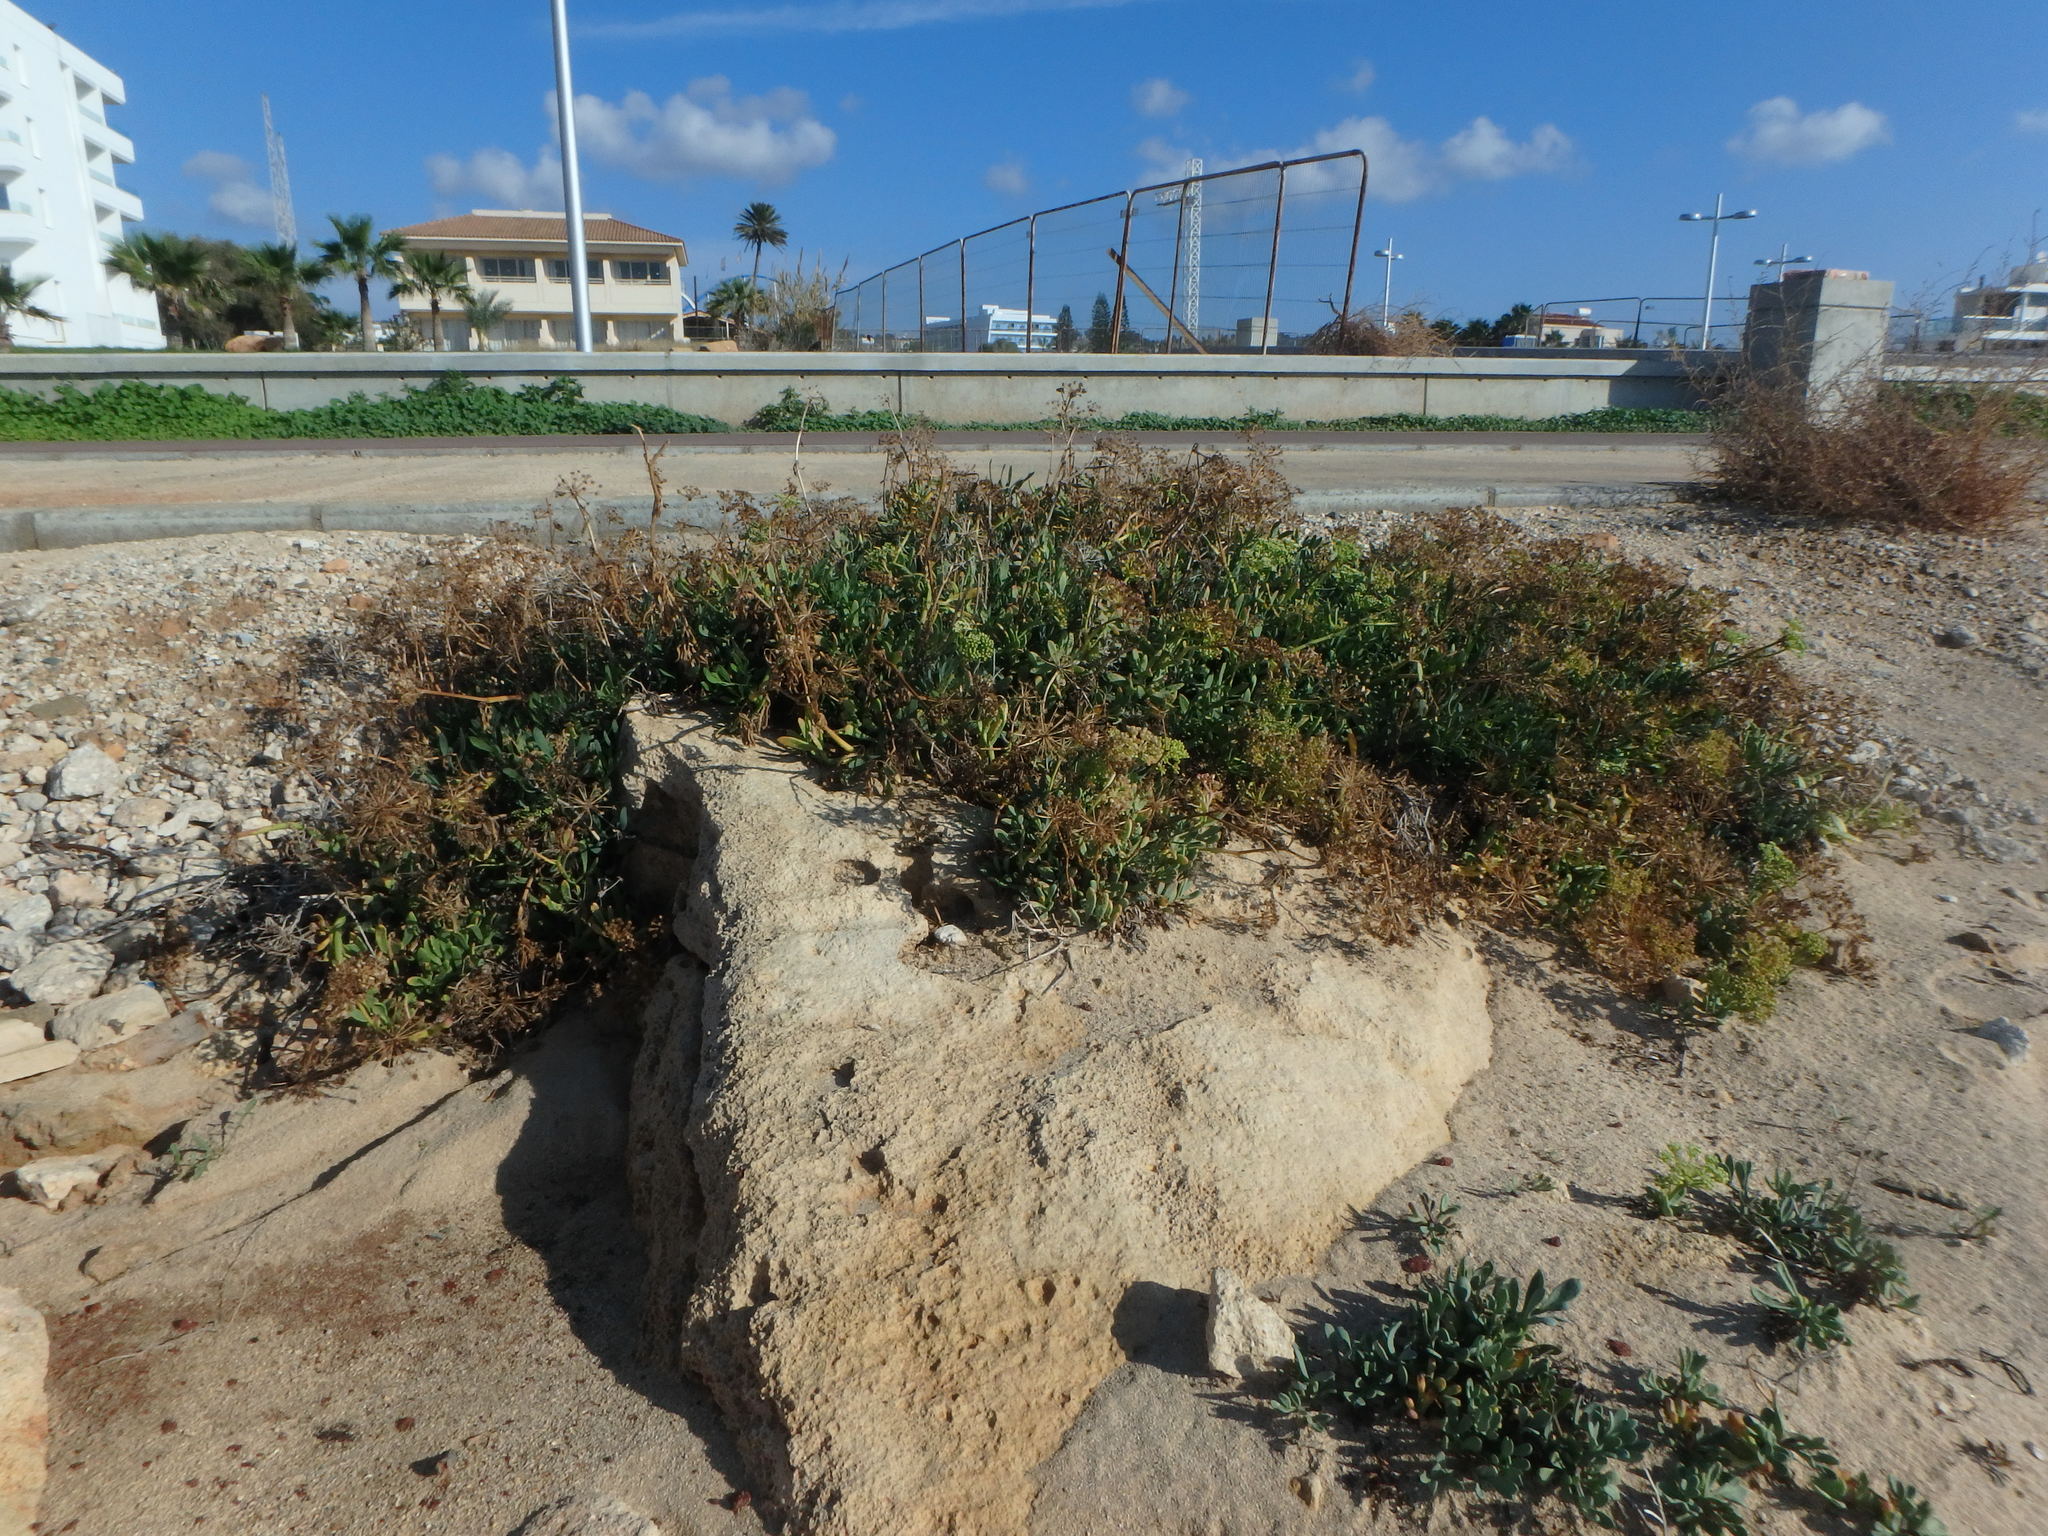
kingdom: Plantae
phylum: Tracheophyta
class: Magnoliopsida
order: Apiales
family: Apiaceae
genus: Crithmum
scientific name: Crithmum maritimum
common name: Rock samphire
